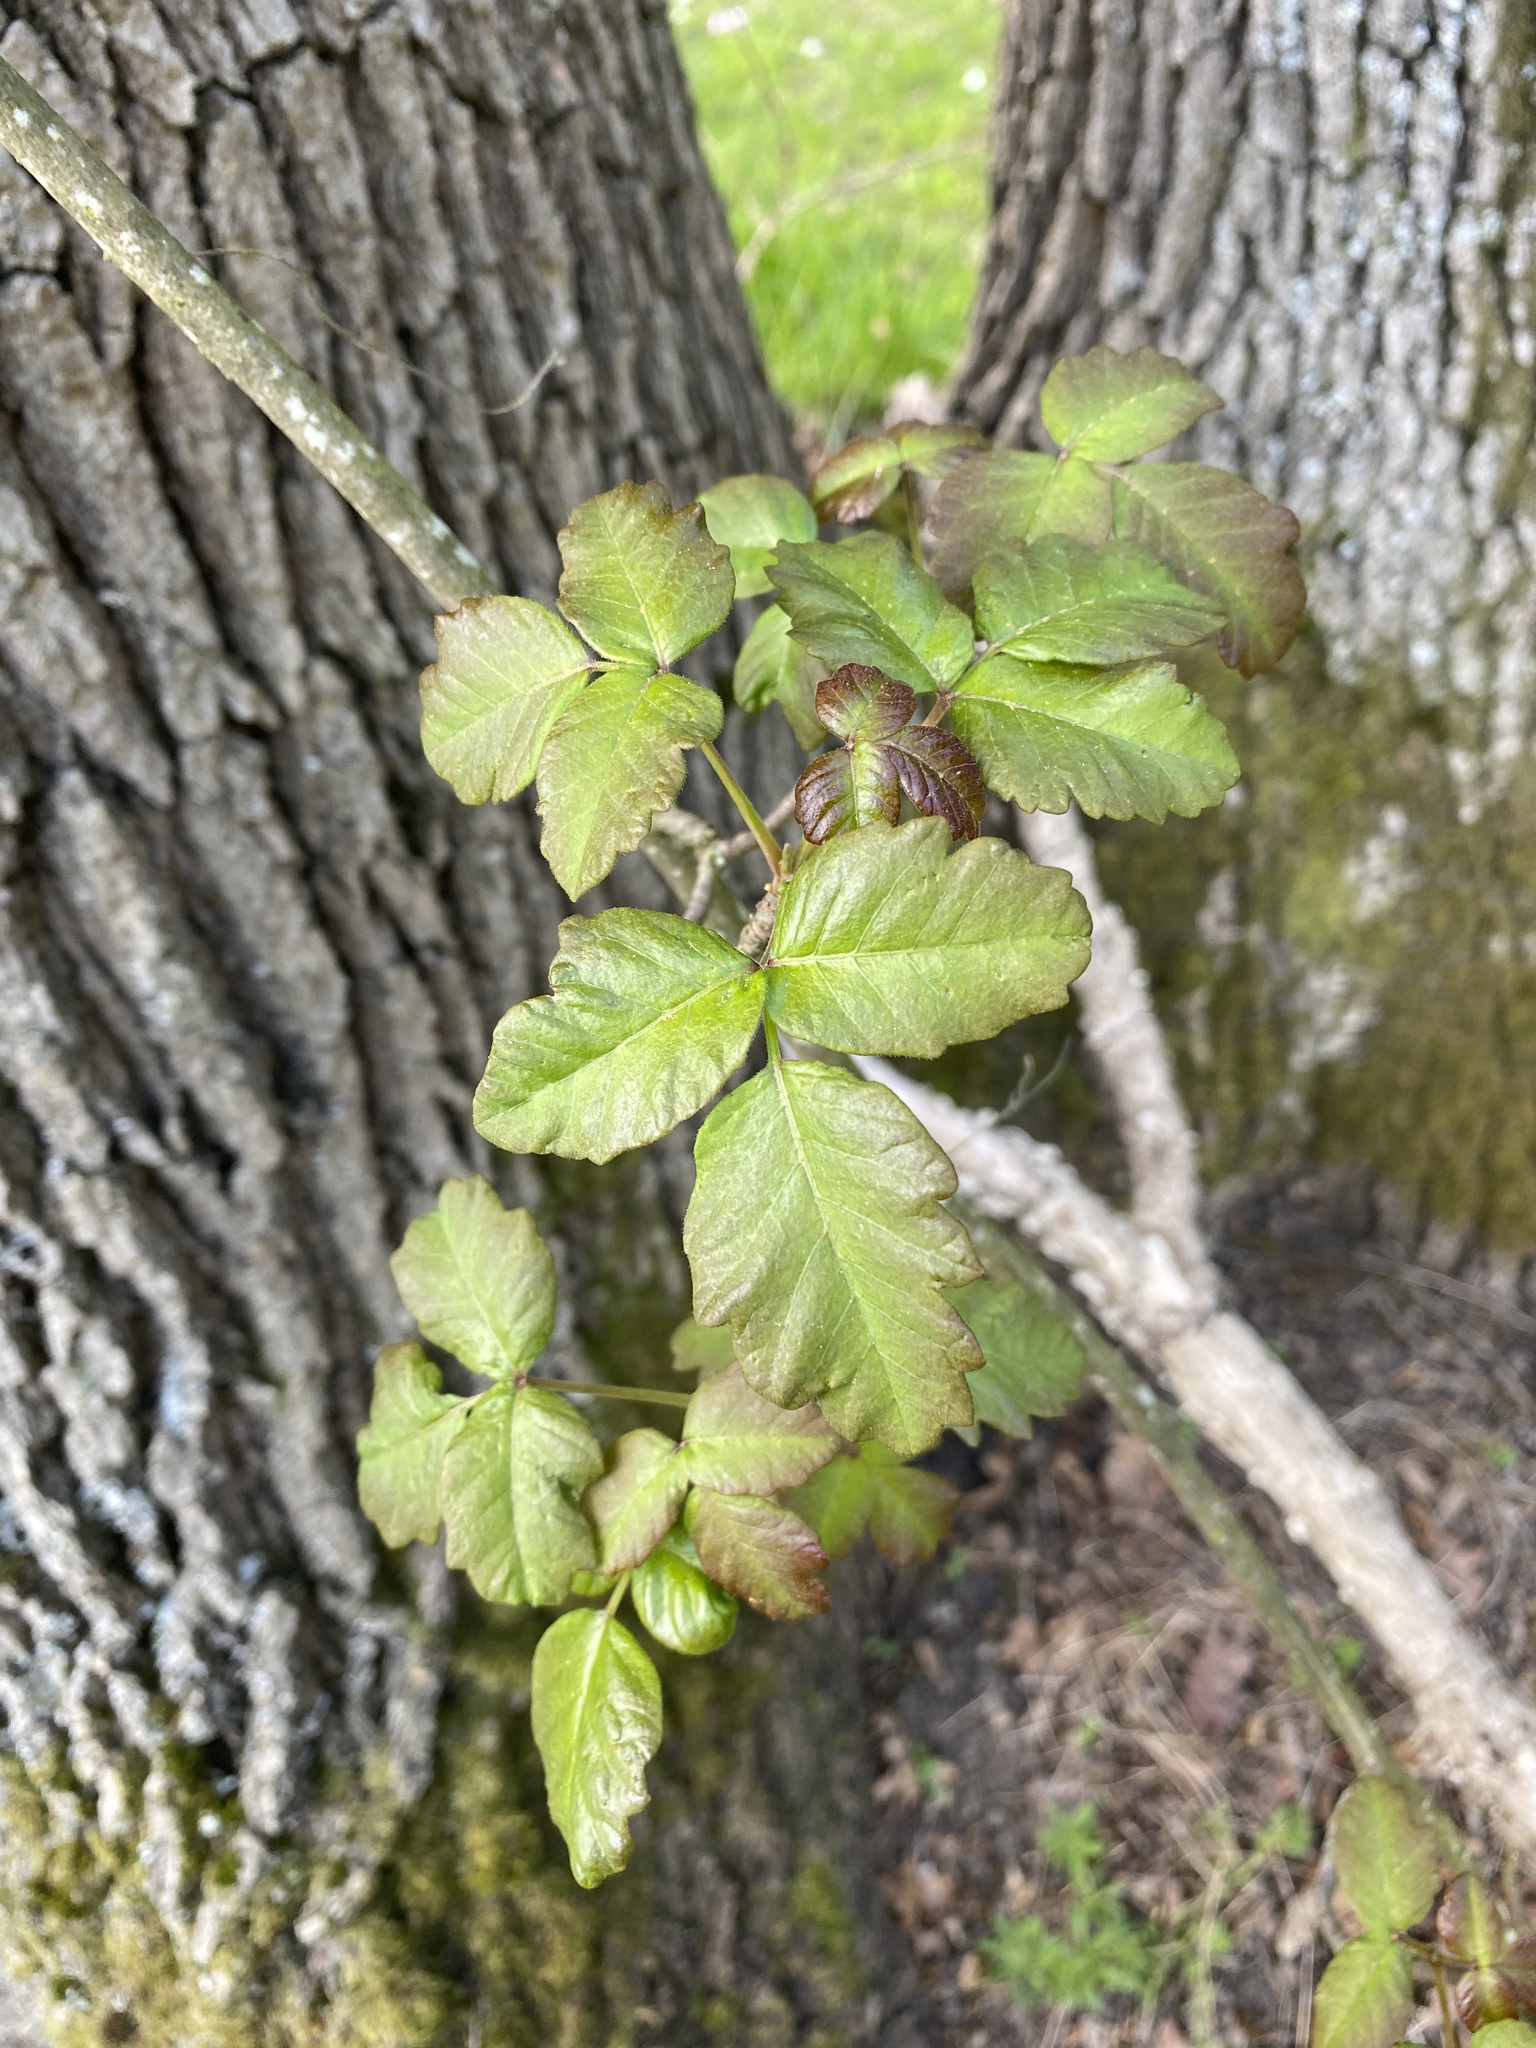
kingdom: Plantae
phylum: Tracheophyta
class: Magnoliopsida
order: Sapindales
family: Anacardiaceae
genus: Toxicodendron
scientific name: Toxicodendron diversilobum
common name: Pacific poison-oak
